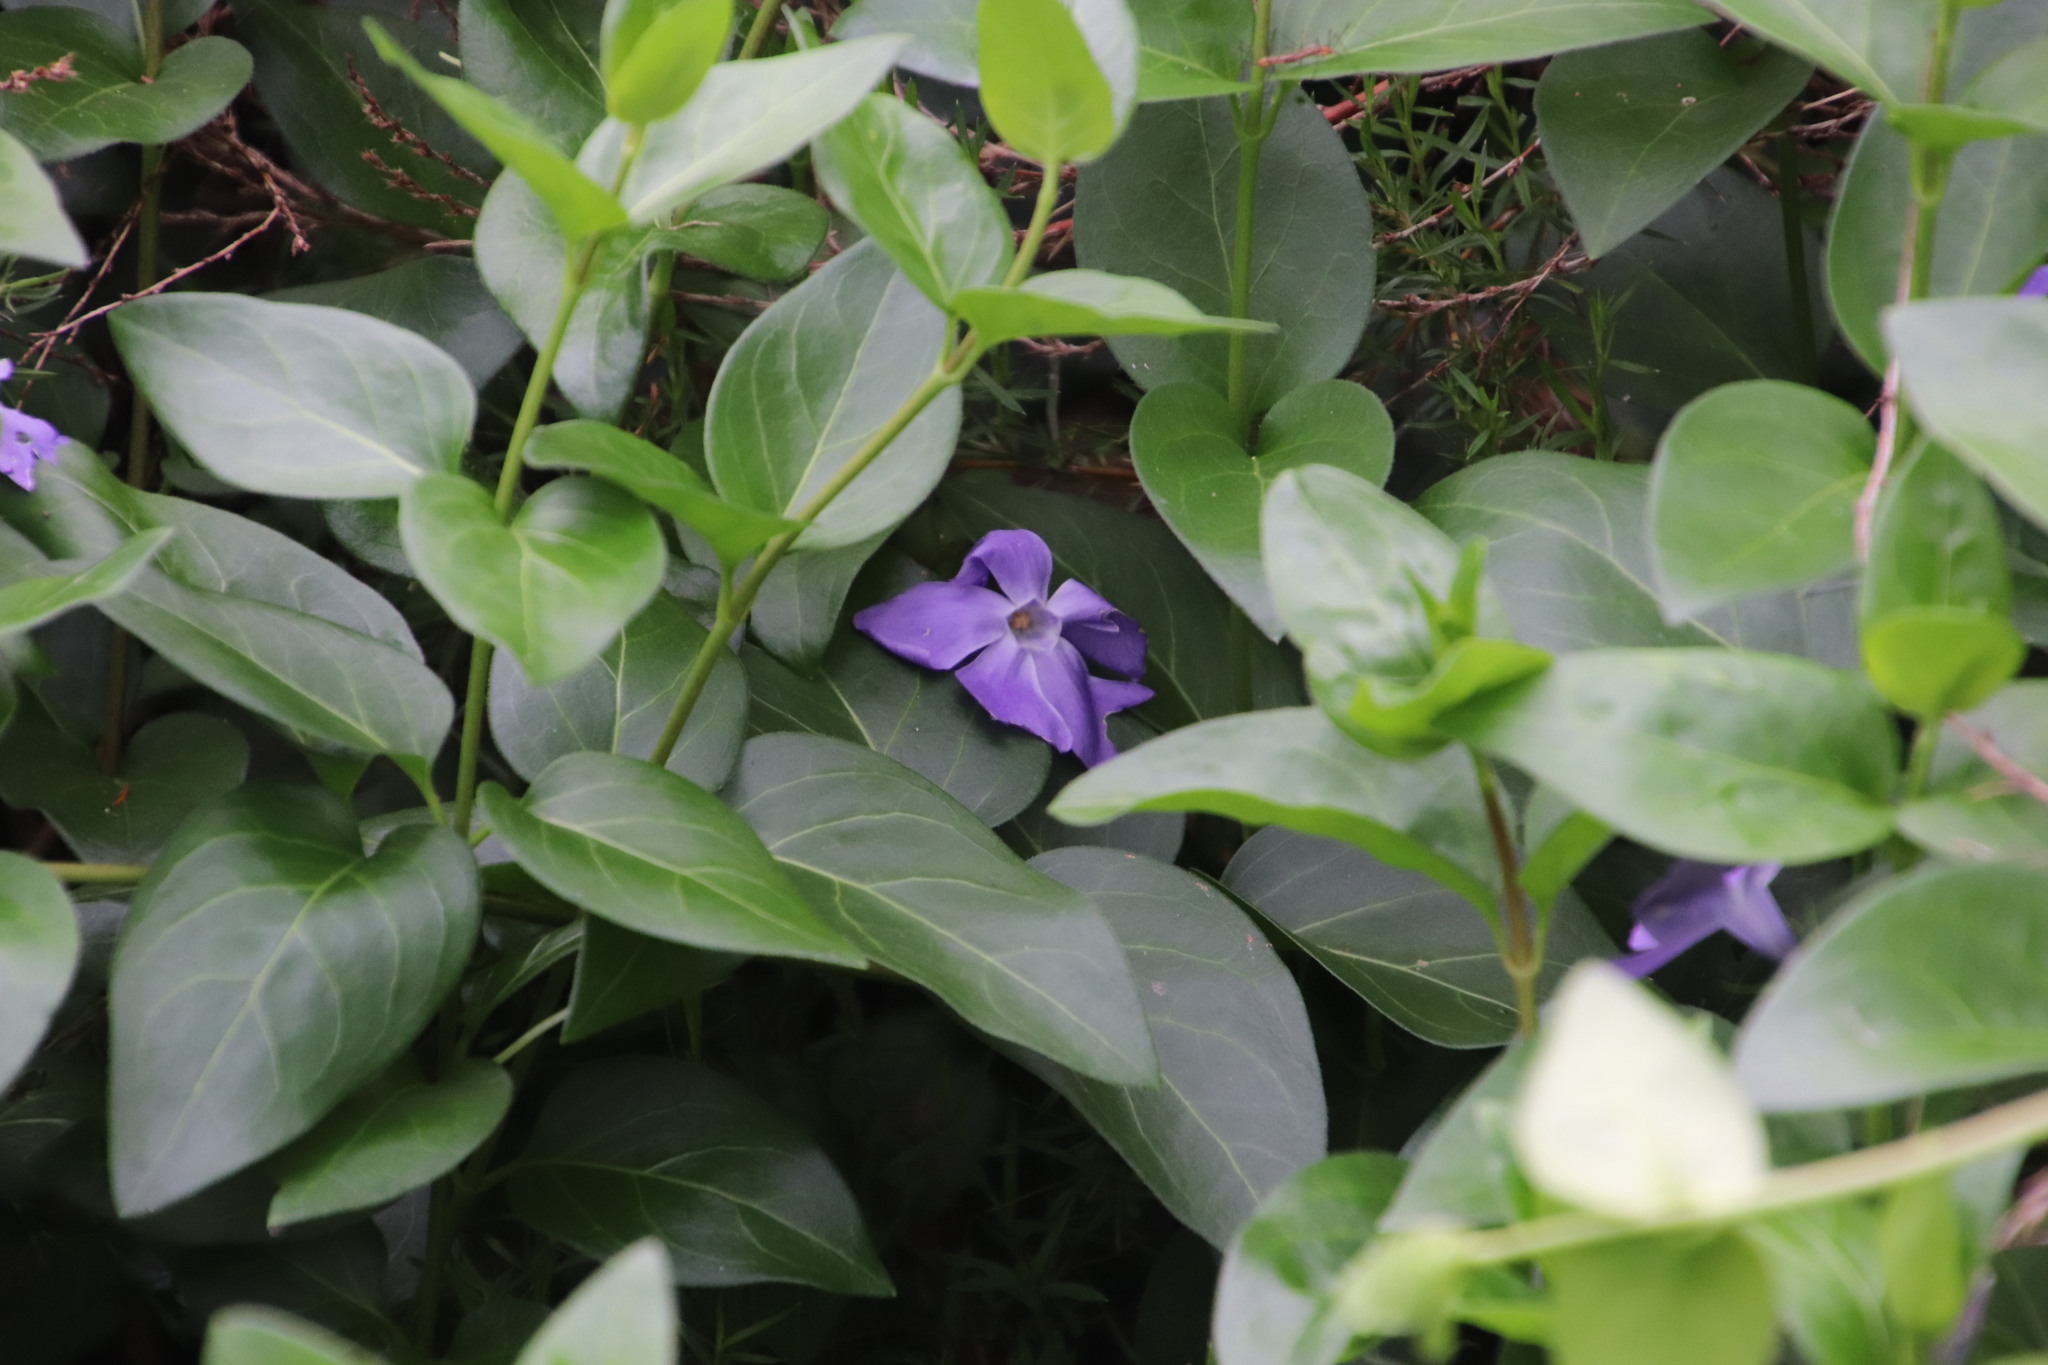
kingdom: Plantae
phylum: Tracheophyta
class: Magnoliopsida
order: Gentianales
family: Apocynaceae
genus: Vinca
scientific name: Vinca major
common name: Greater periwinkle
